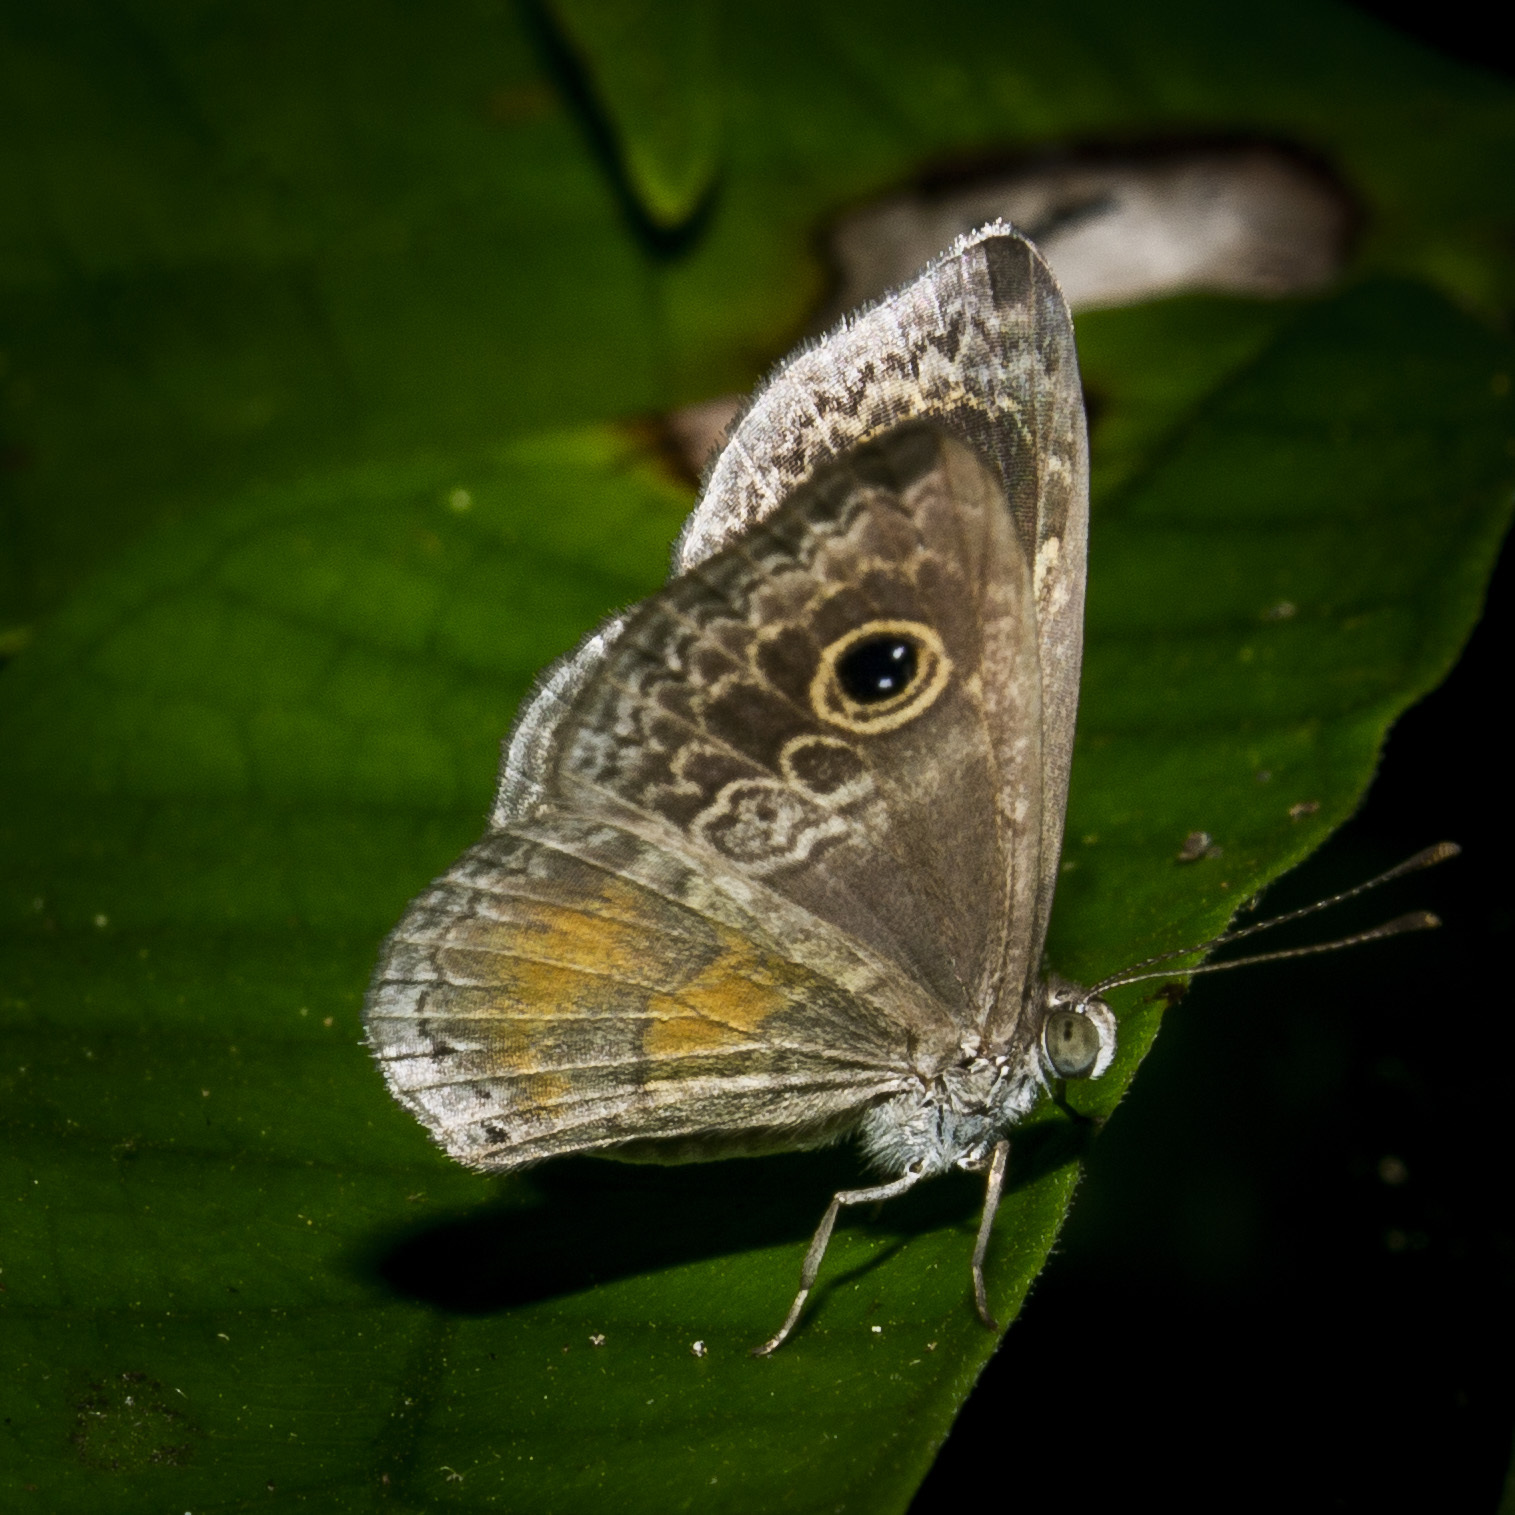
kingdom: Animalia
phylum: Arthropoda
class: Insecta
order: Lepidoptera
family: Riodinidae
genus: Perophthalma
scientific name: Perophthalma tullius
